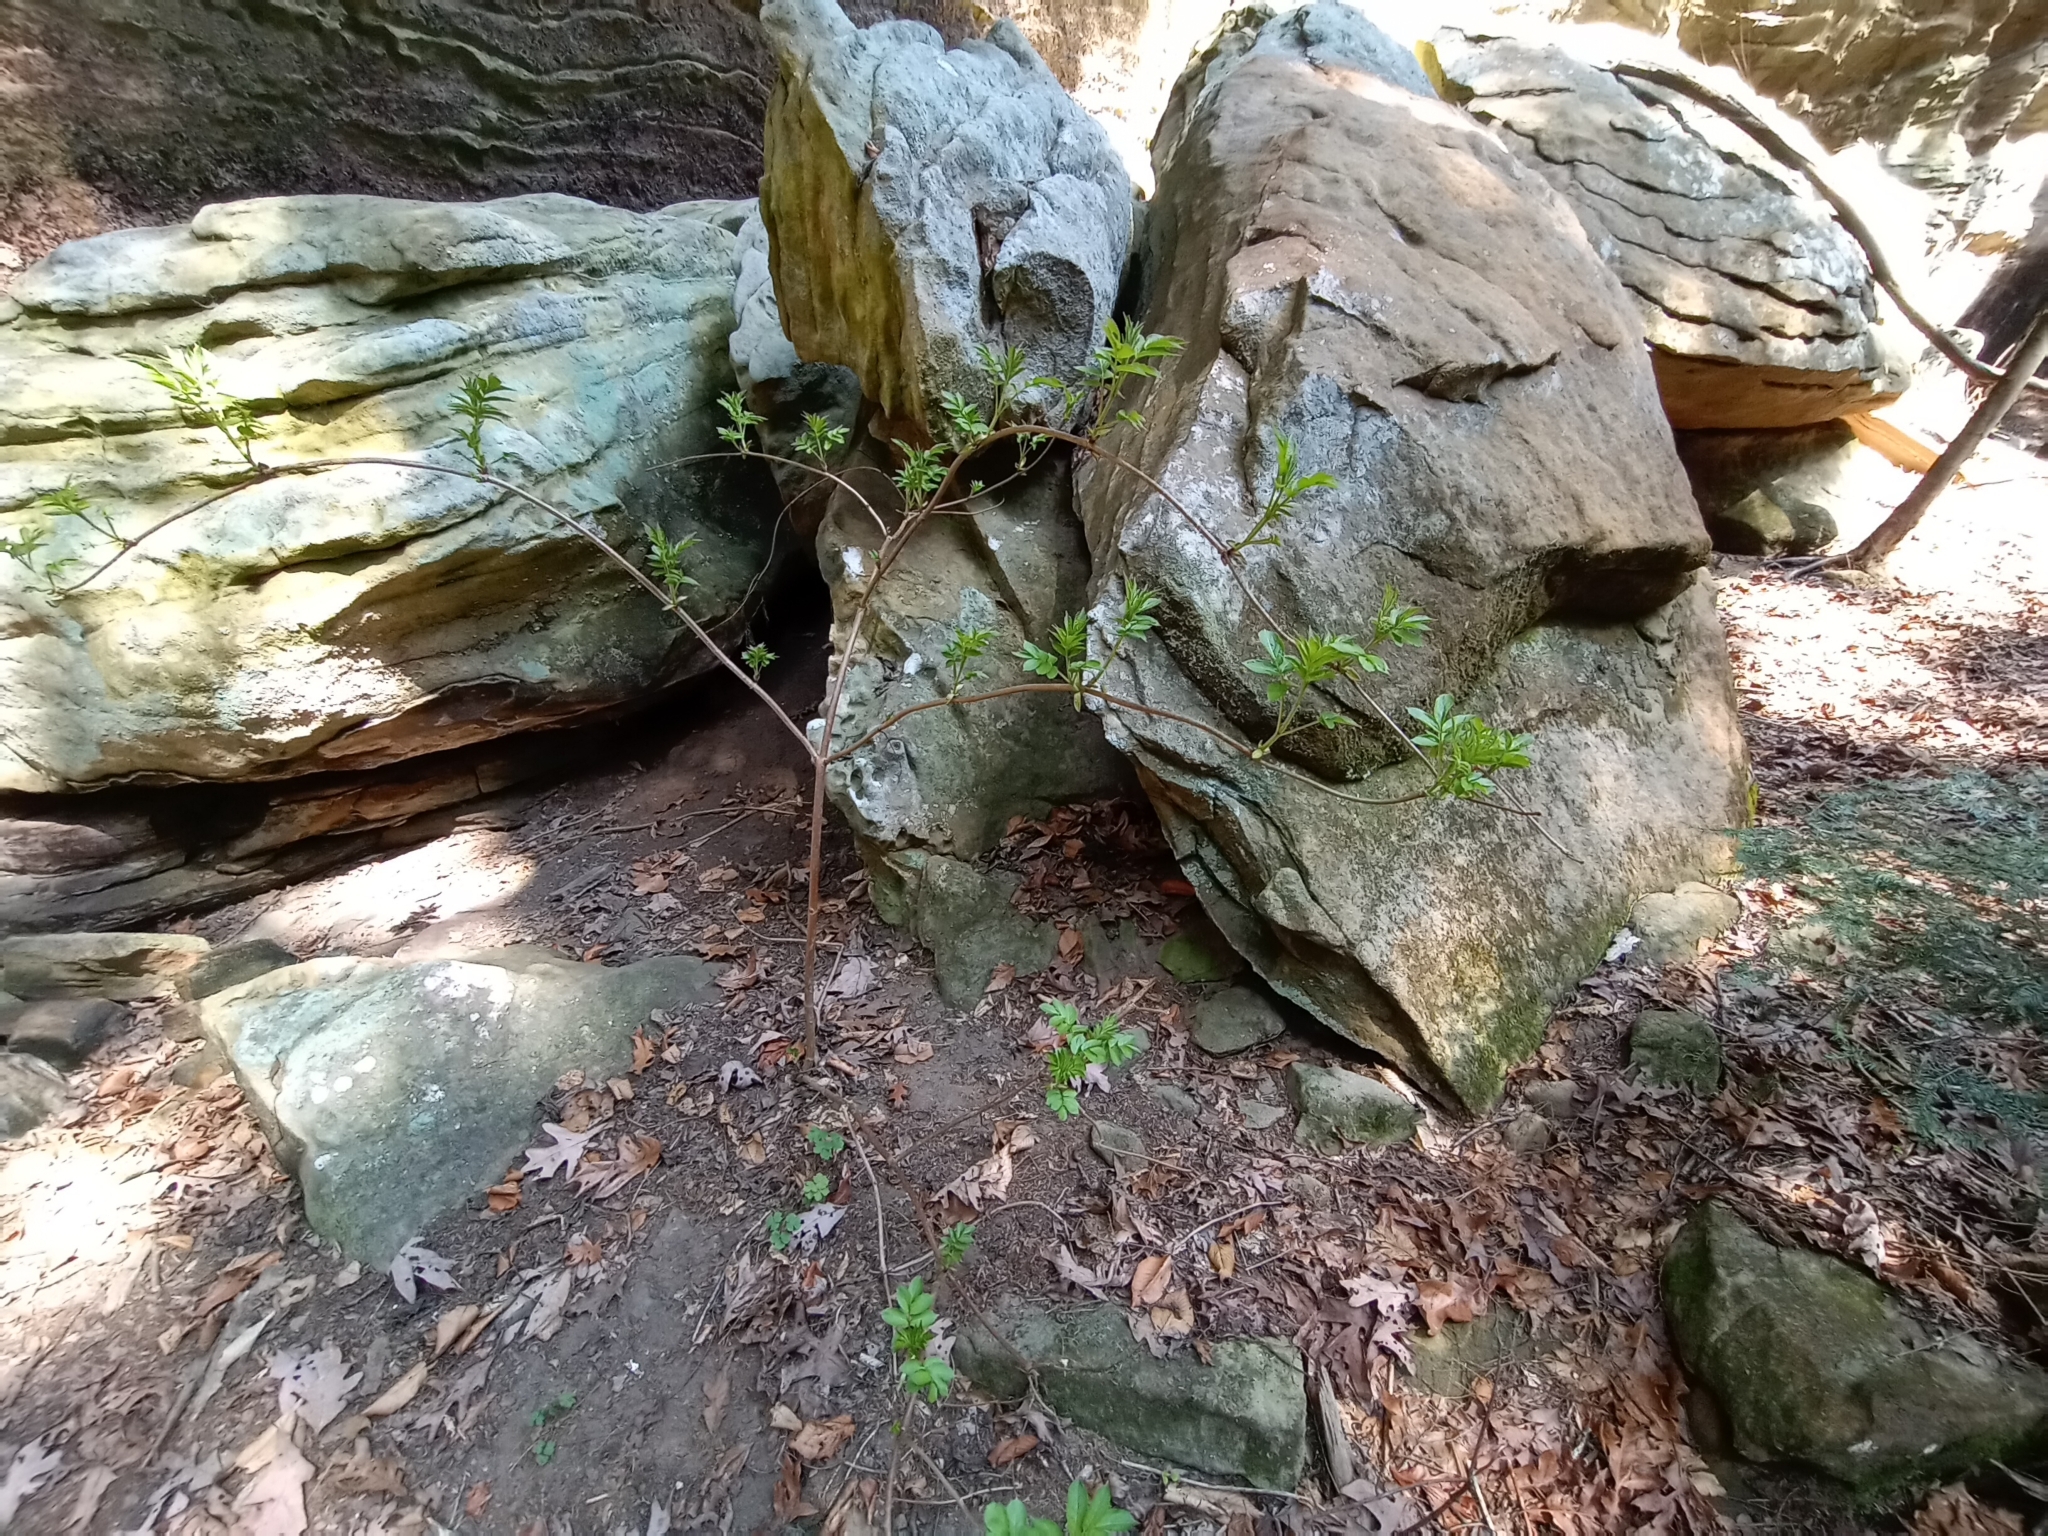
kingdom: Plantae
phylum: Tracheophyta
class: Magnoliopsida
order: Dipsacales
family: Viburnaceae
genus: Sambucus
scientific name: Sambucus racemosa
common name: Red-berried elder
